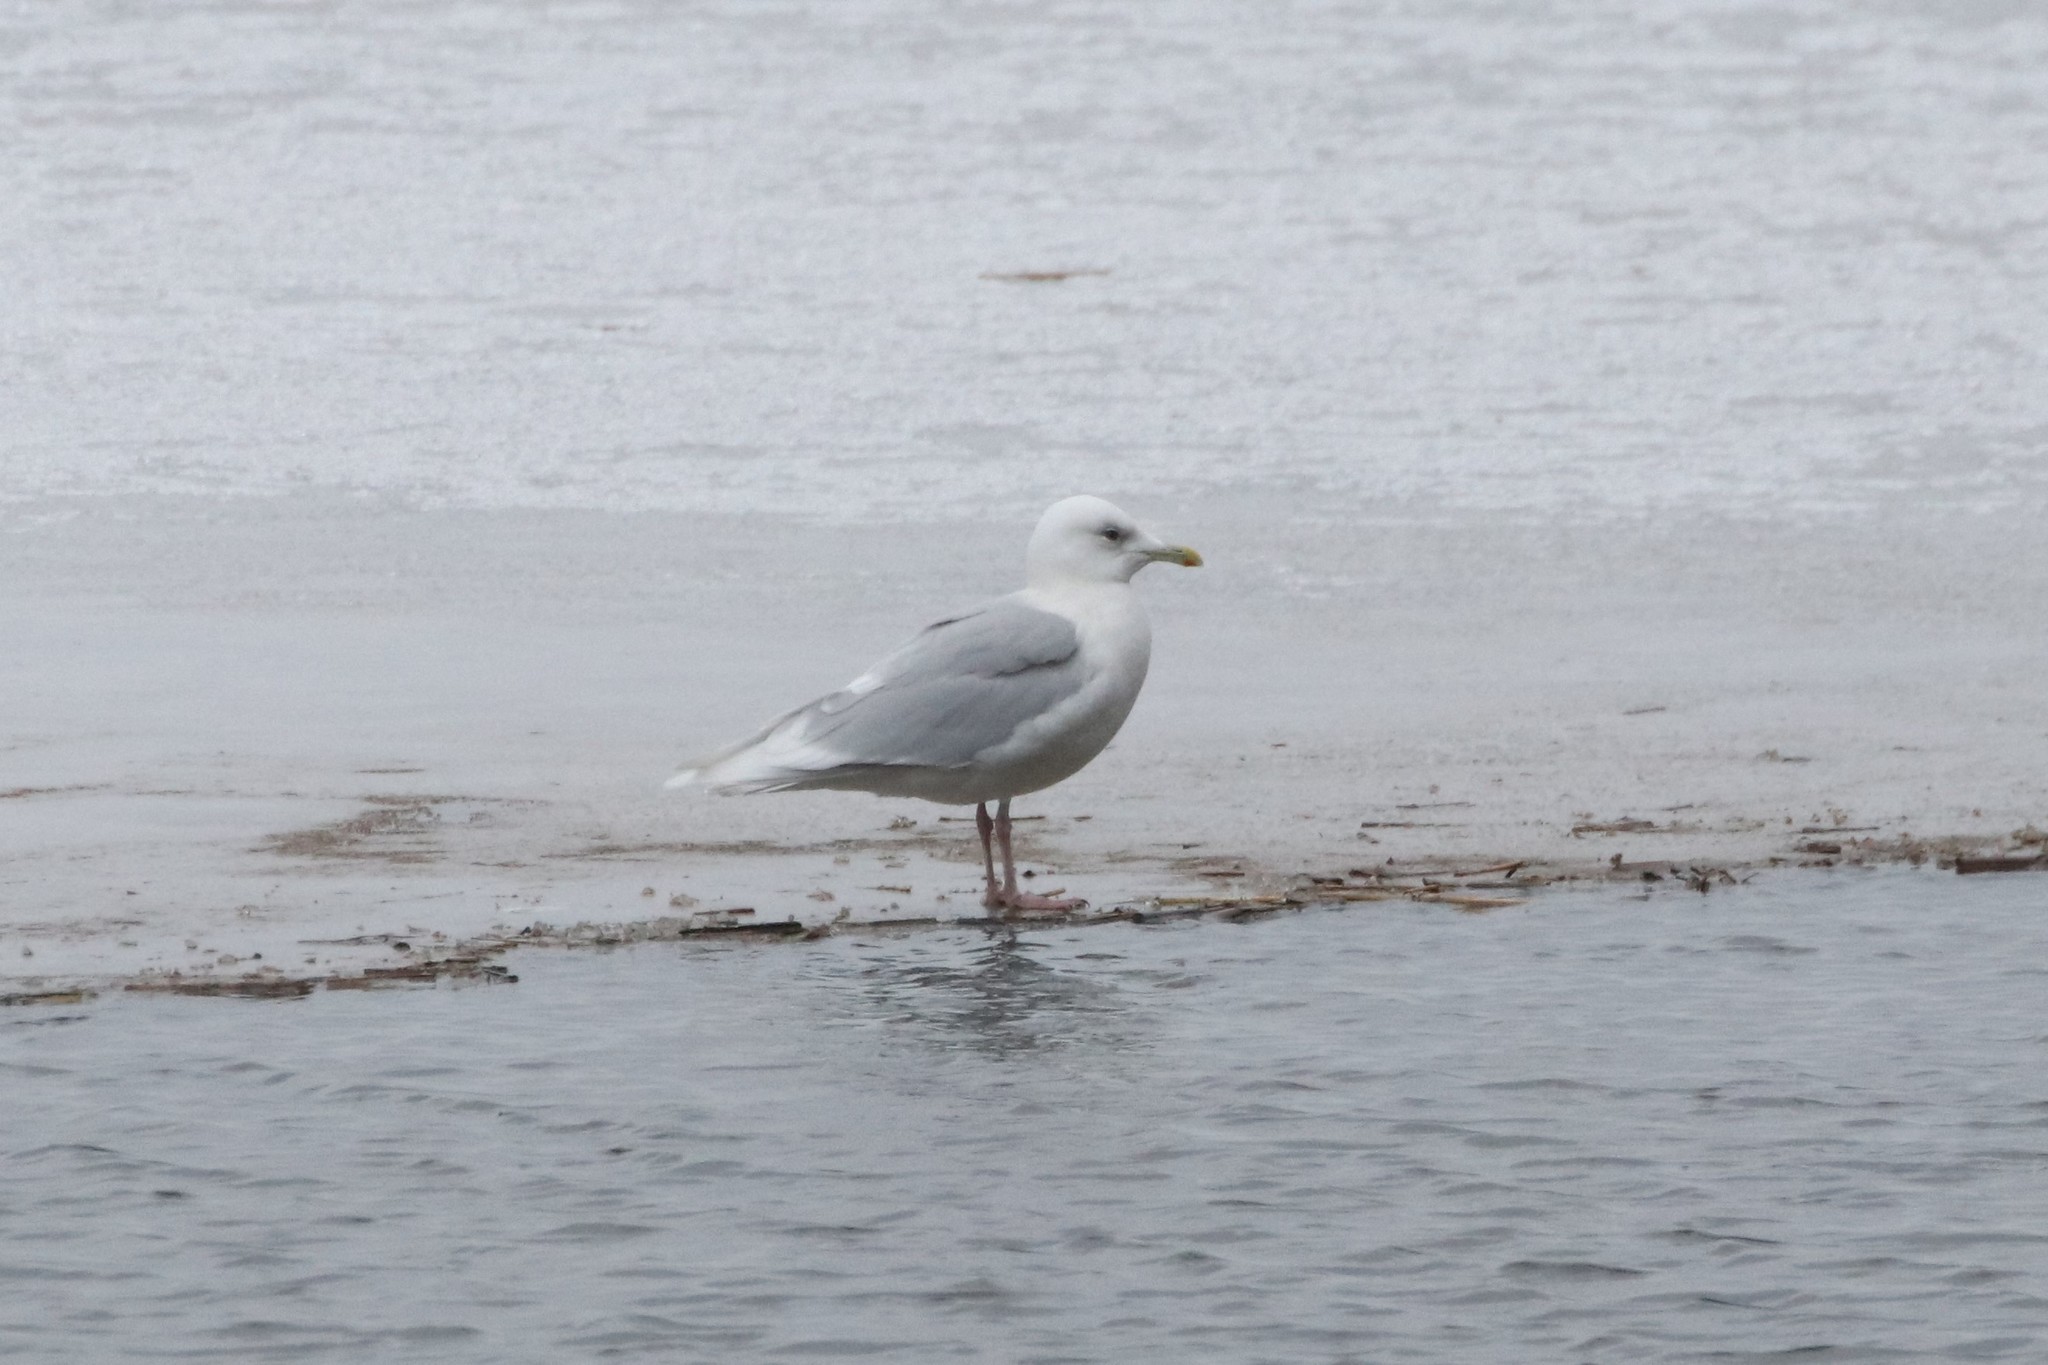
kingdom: Animalia
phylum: Chordata
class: Aves
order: Charadriiformes
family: Laridae
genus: Larus
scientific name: Larus glaucoides
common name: Iceland gull
